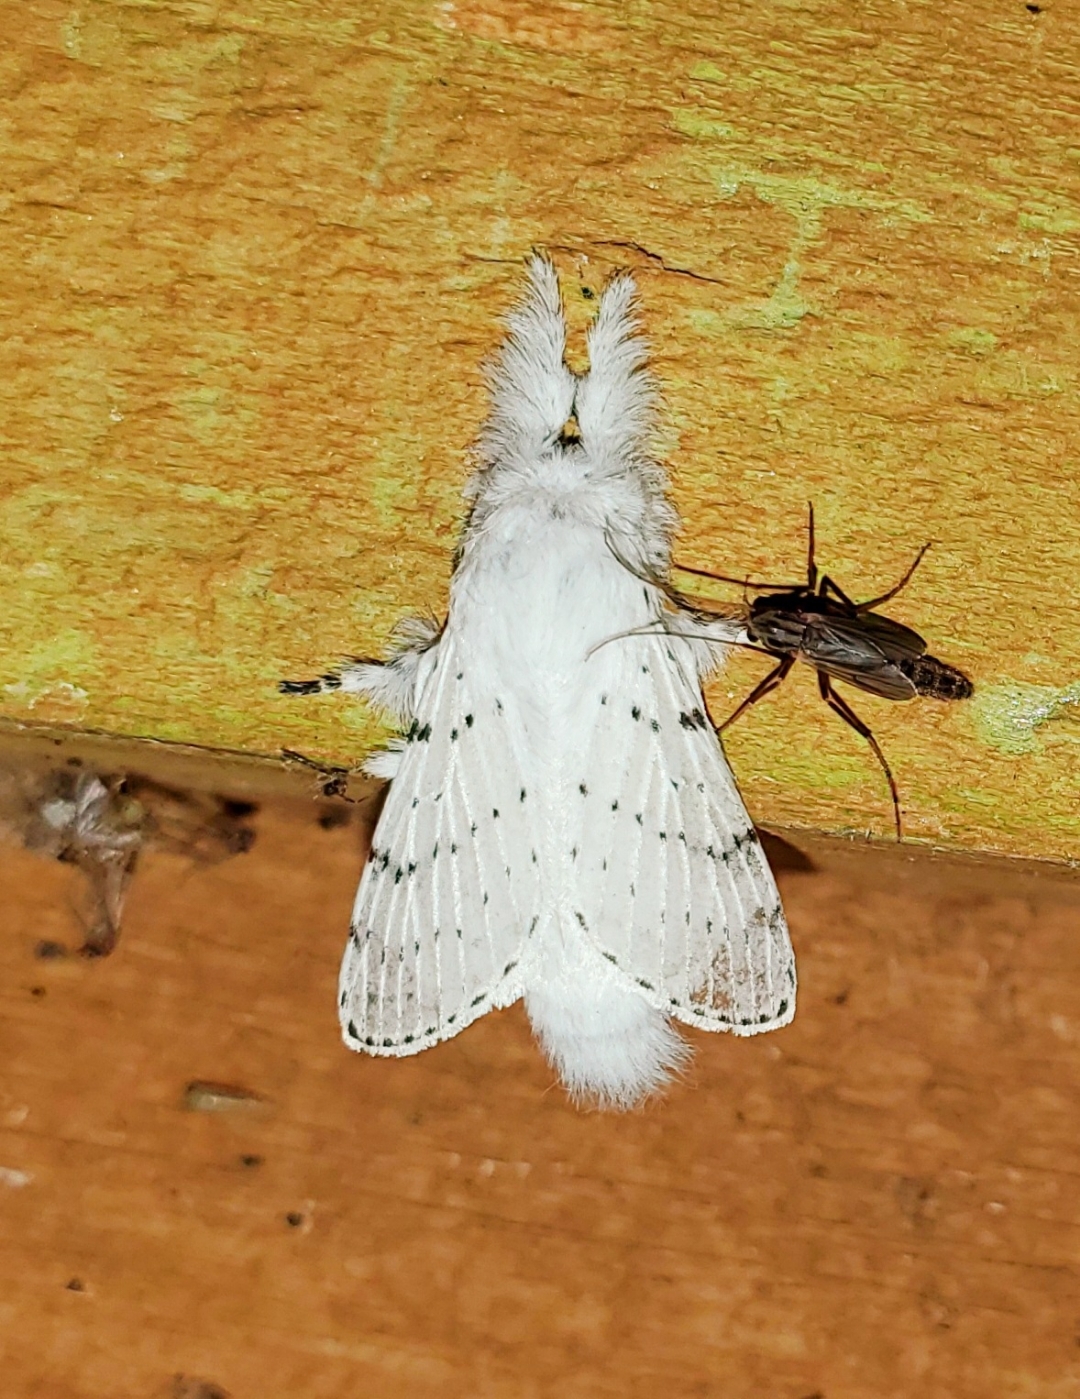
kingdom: Animalia
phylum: Arthropoda
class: Insecta
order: Lepidoptera
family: Lasiocampidae
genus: Artace
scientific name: Artace cribrarius
